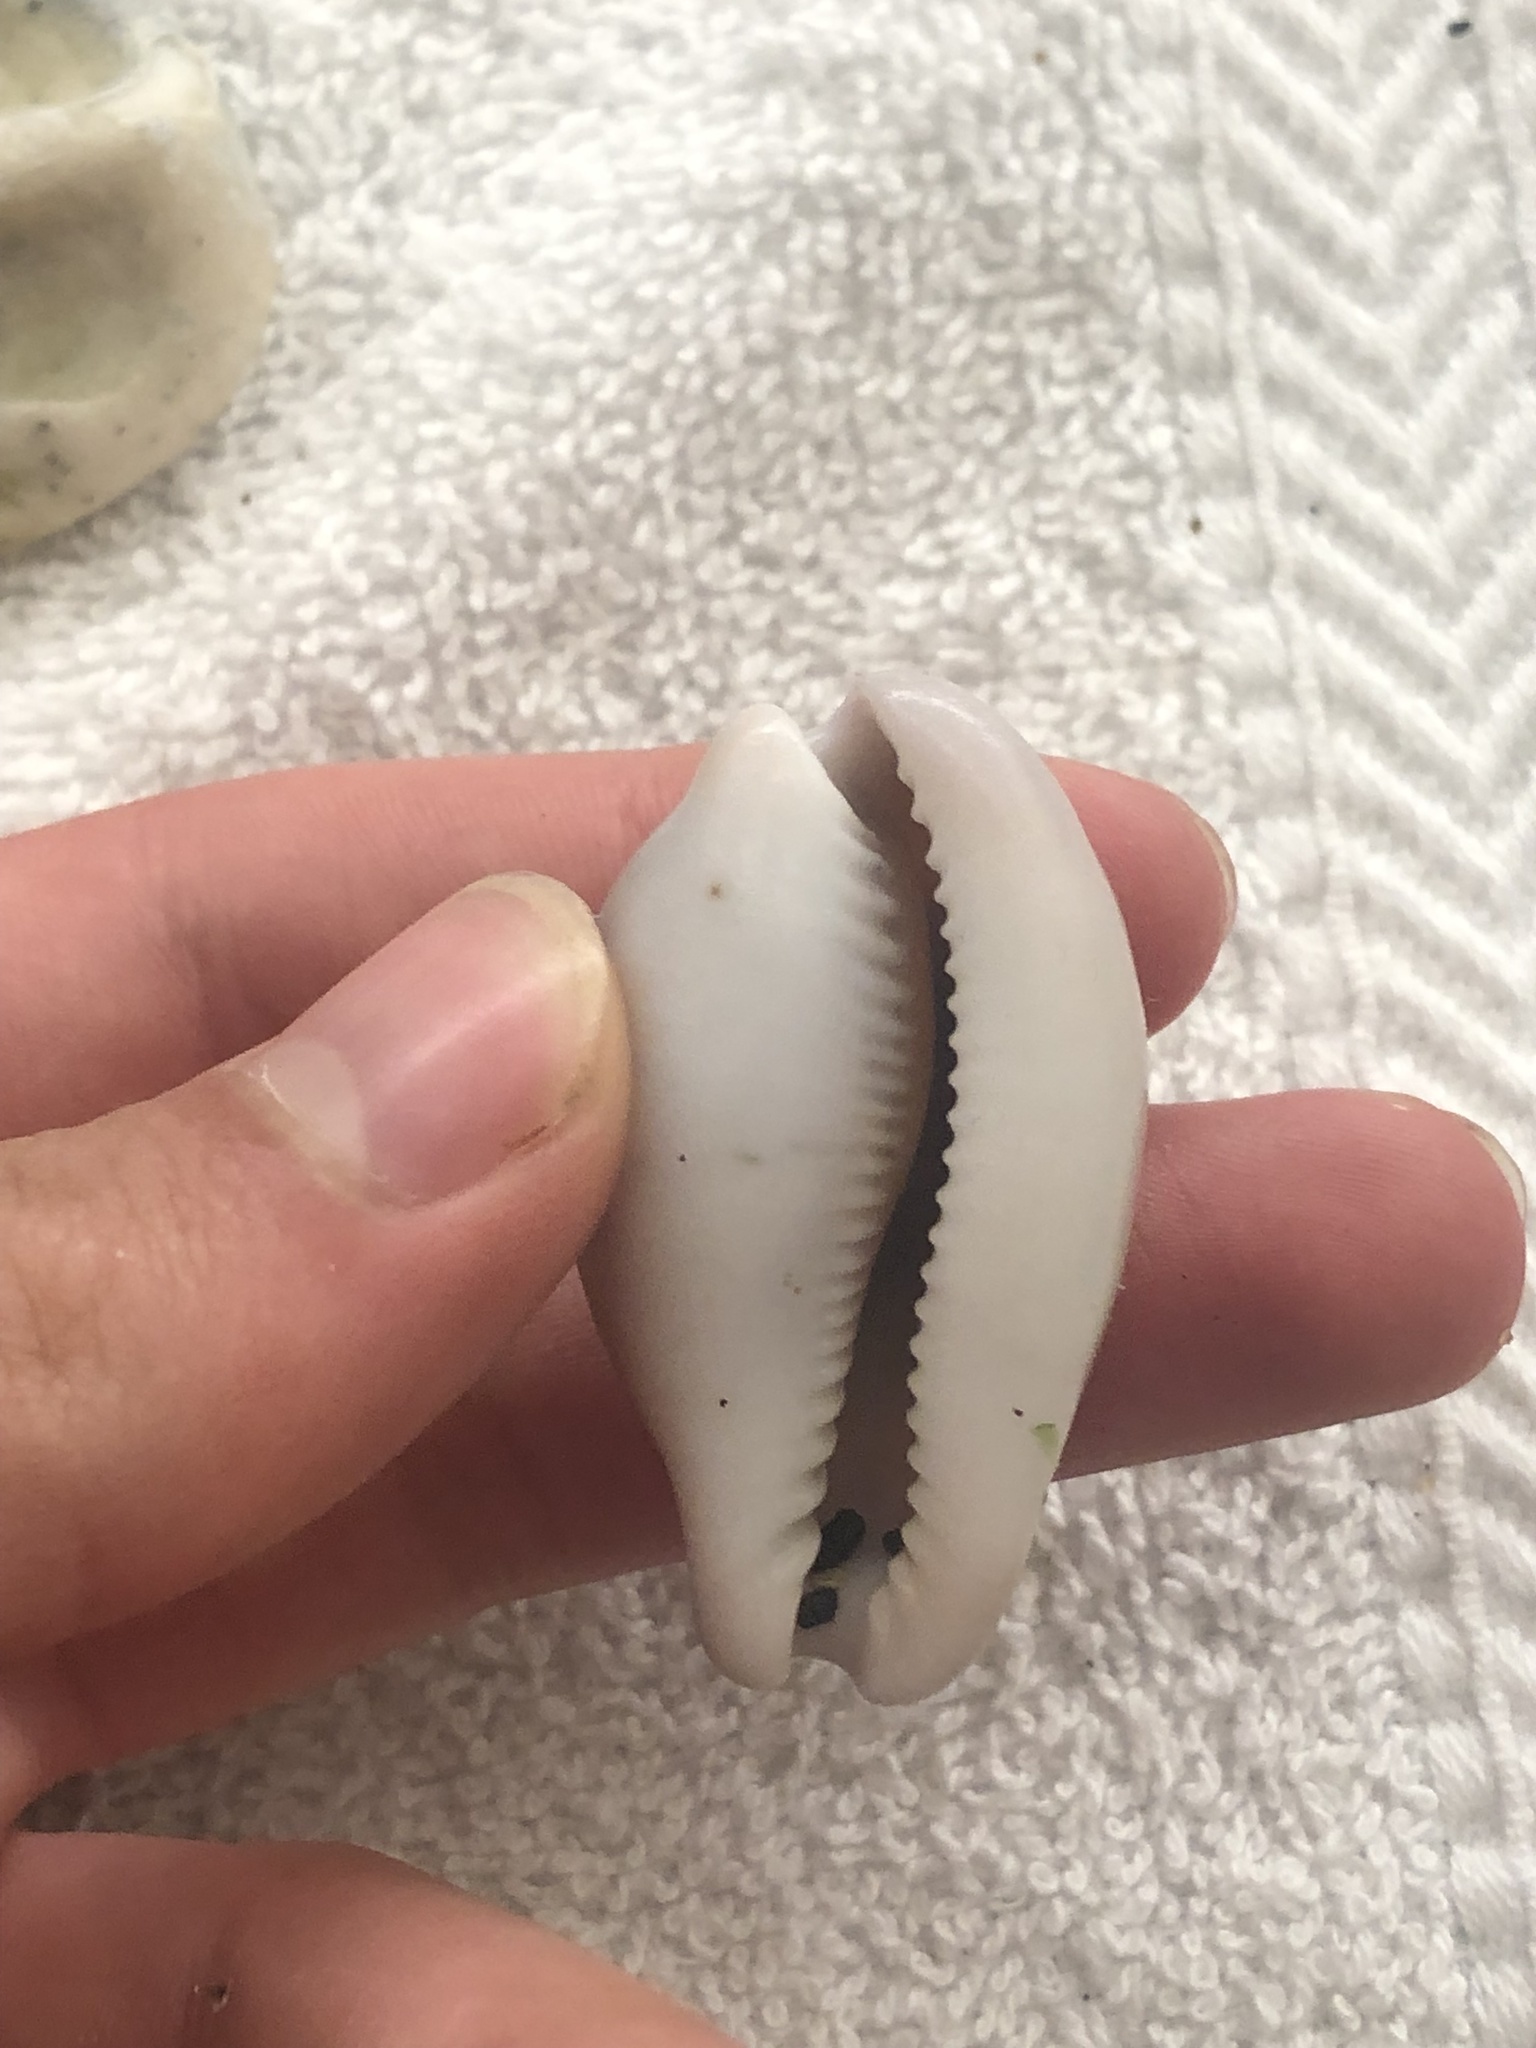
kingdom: Animalia
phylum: Mollusca
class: Gastropoda
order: Littorinimorpha
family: Cypraeidae
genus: Neobernaya
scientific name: Neobernaya spadicea
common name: Chestnut cowrie
